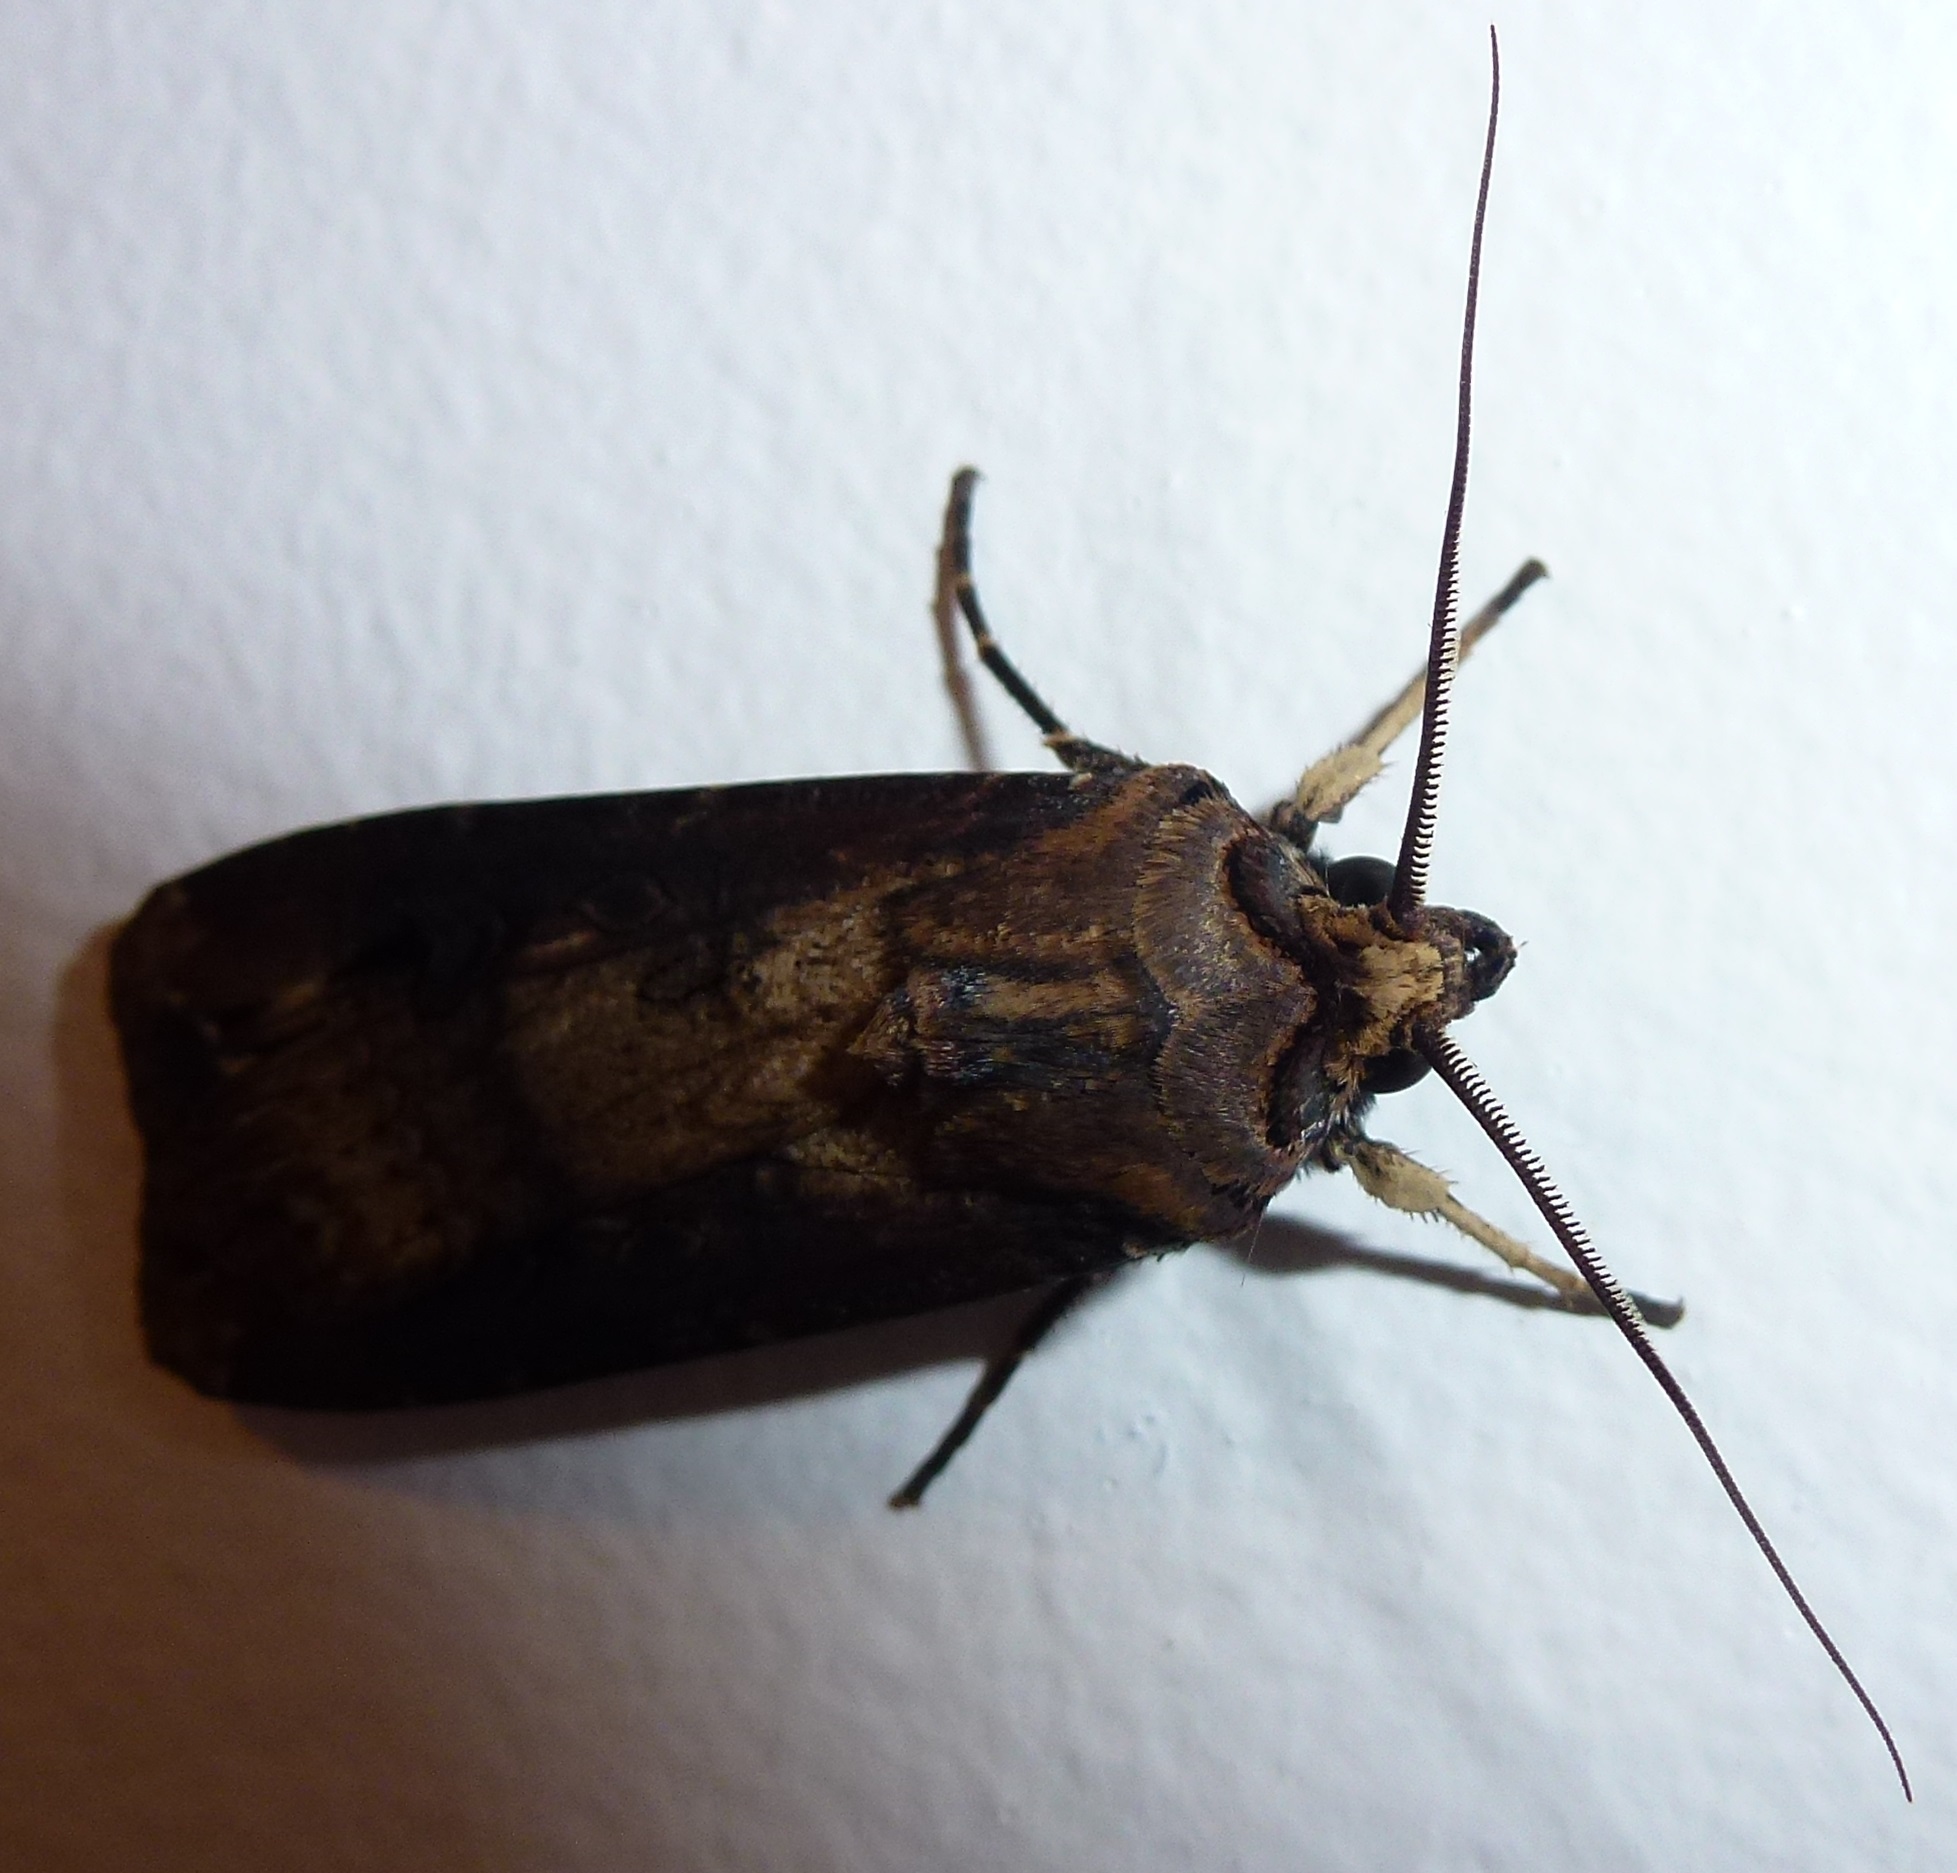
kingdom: Animalia
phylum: Arthropoda
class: Insecta
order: Lepidoptera
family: Noctuidae
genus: Agrotis
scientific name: Agrotis ipsilon
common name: Dark sword-grass
